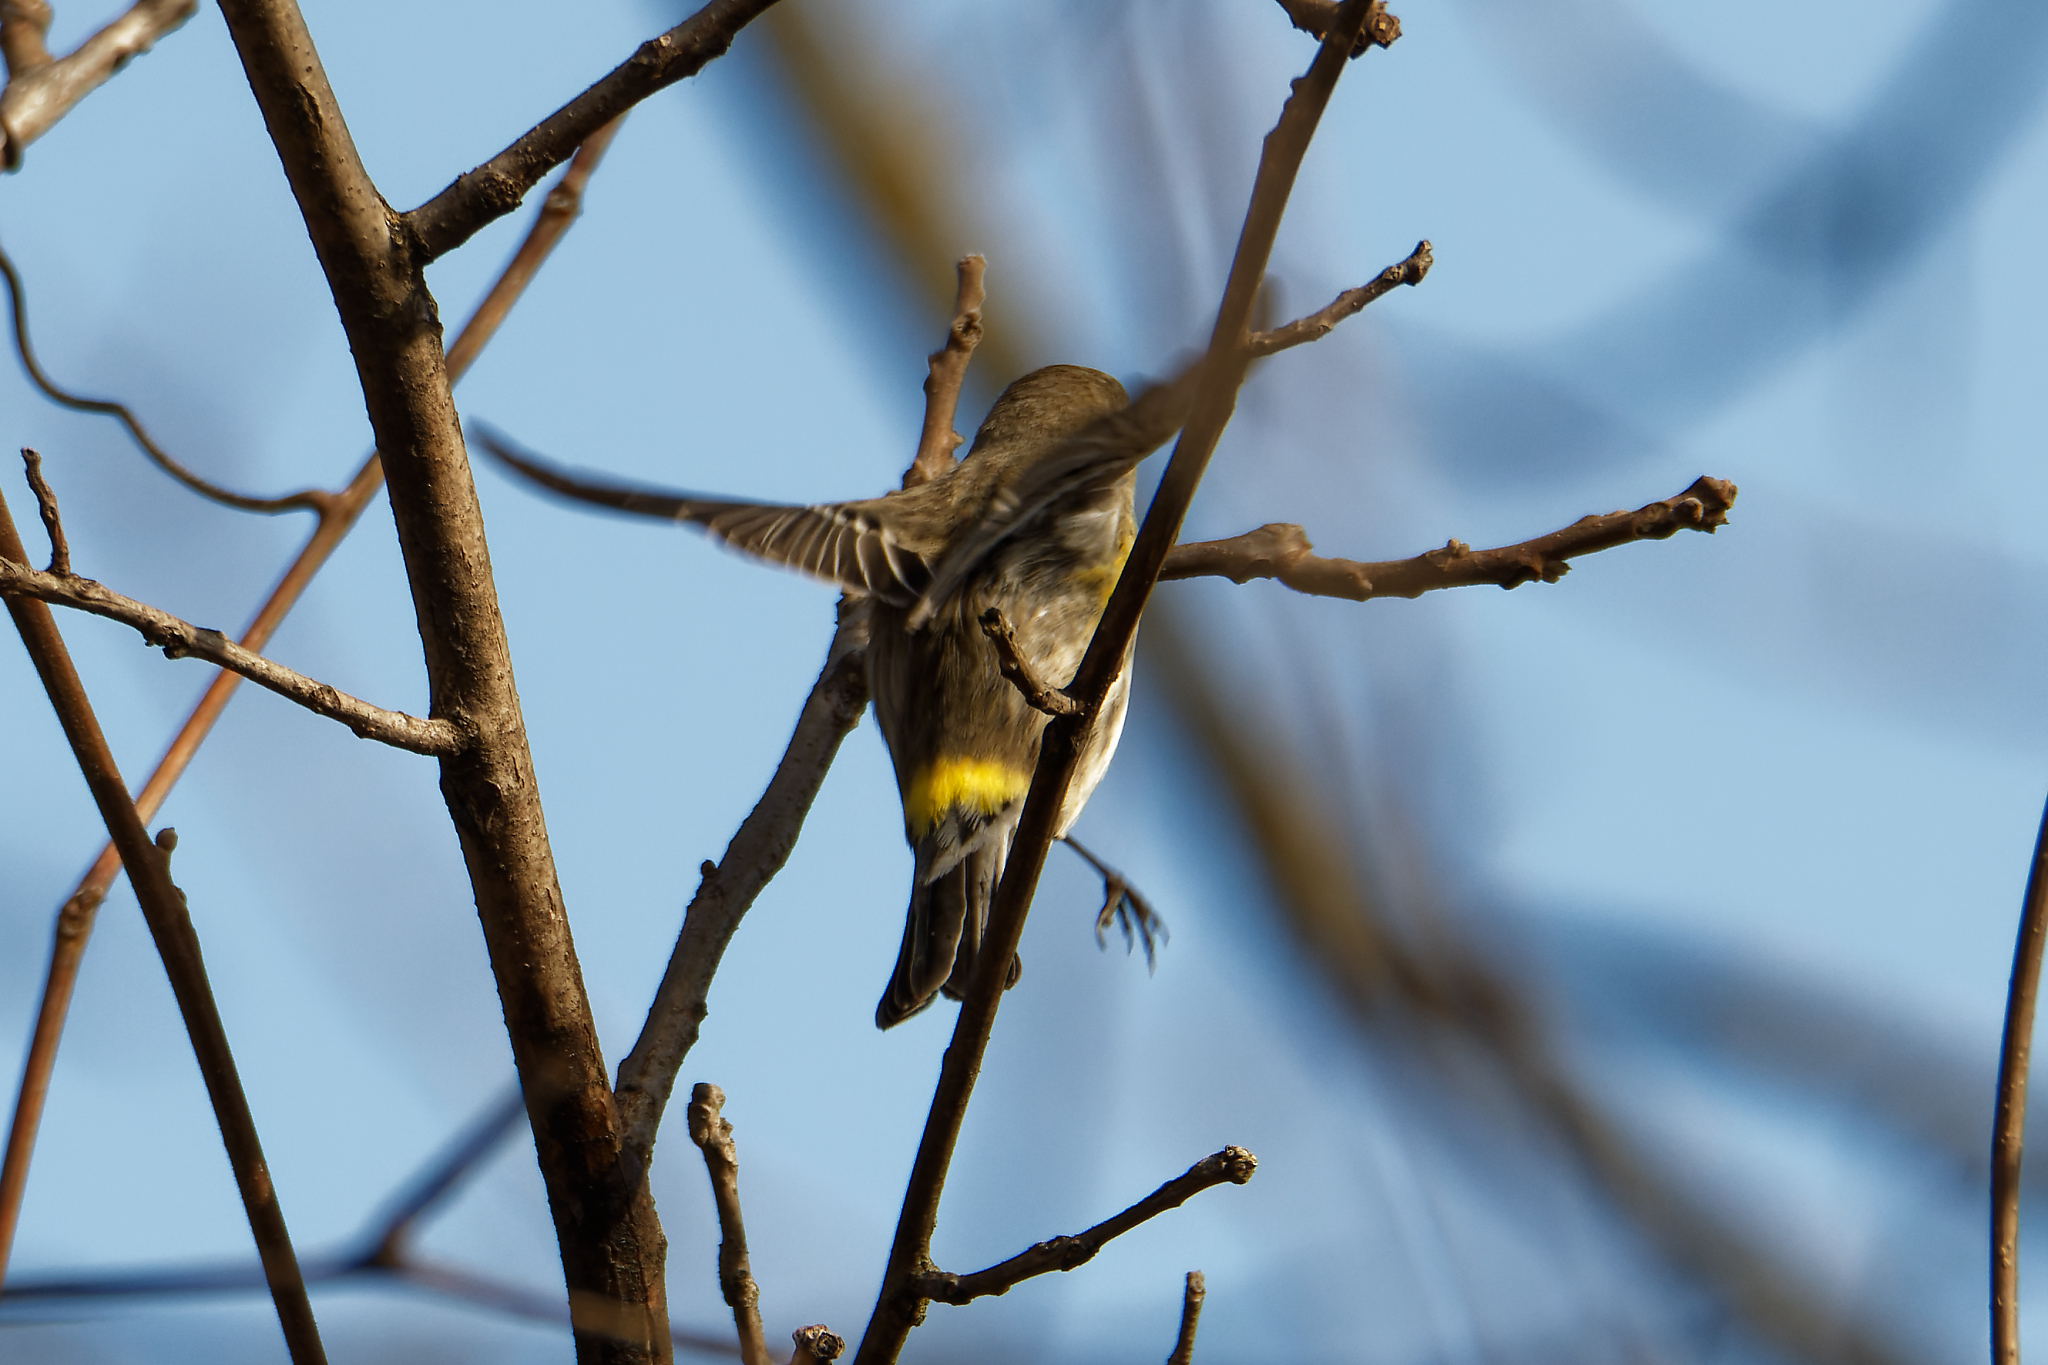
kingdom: Animalia
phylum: Chordata
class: Aves
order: Passeriformes
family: Parulidae
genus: Setophaga
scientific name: Setophaga coronata
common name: Myrtle warbler
